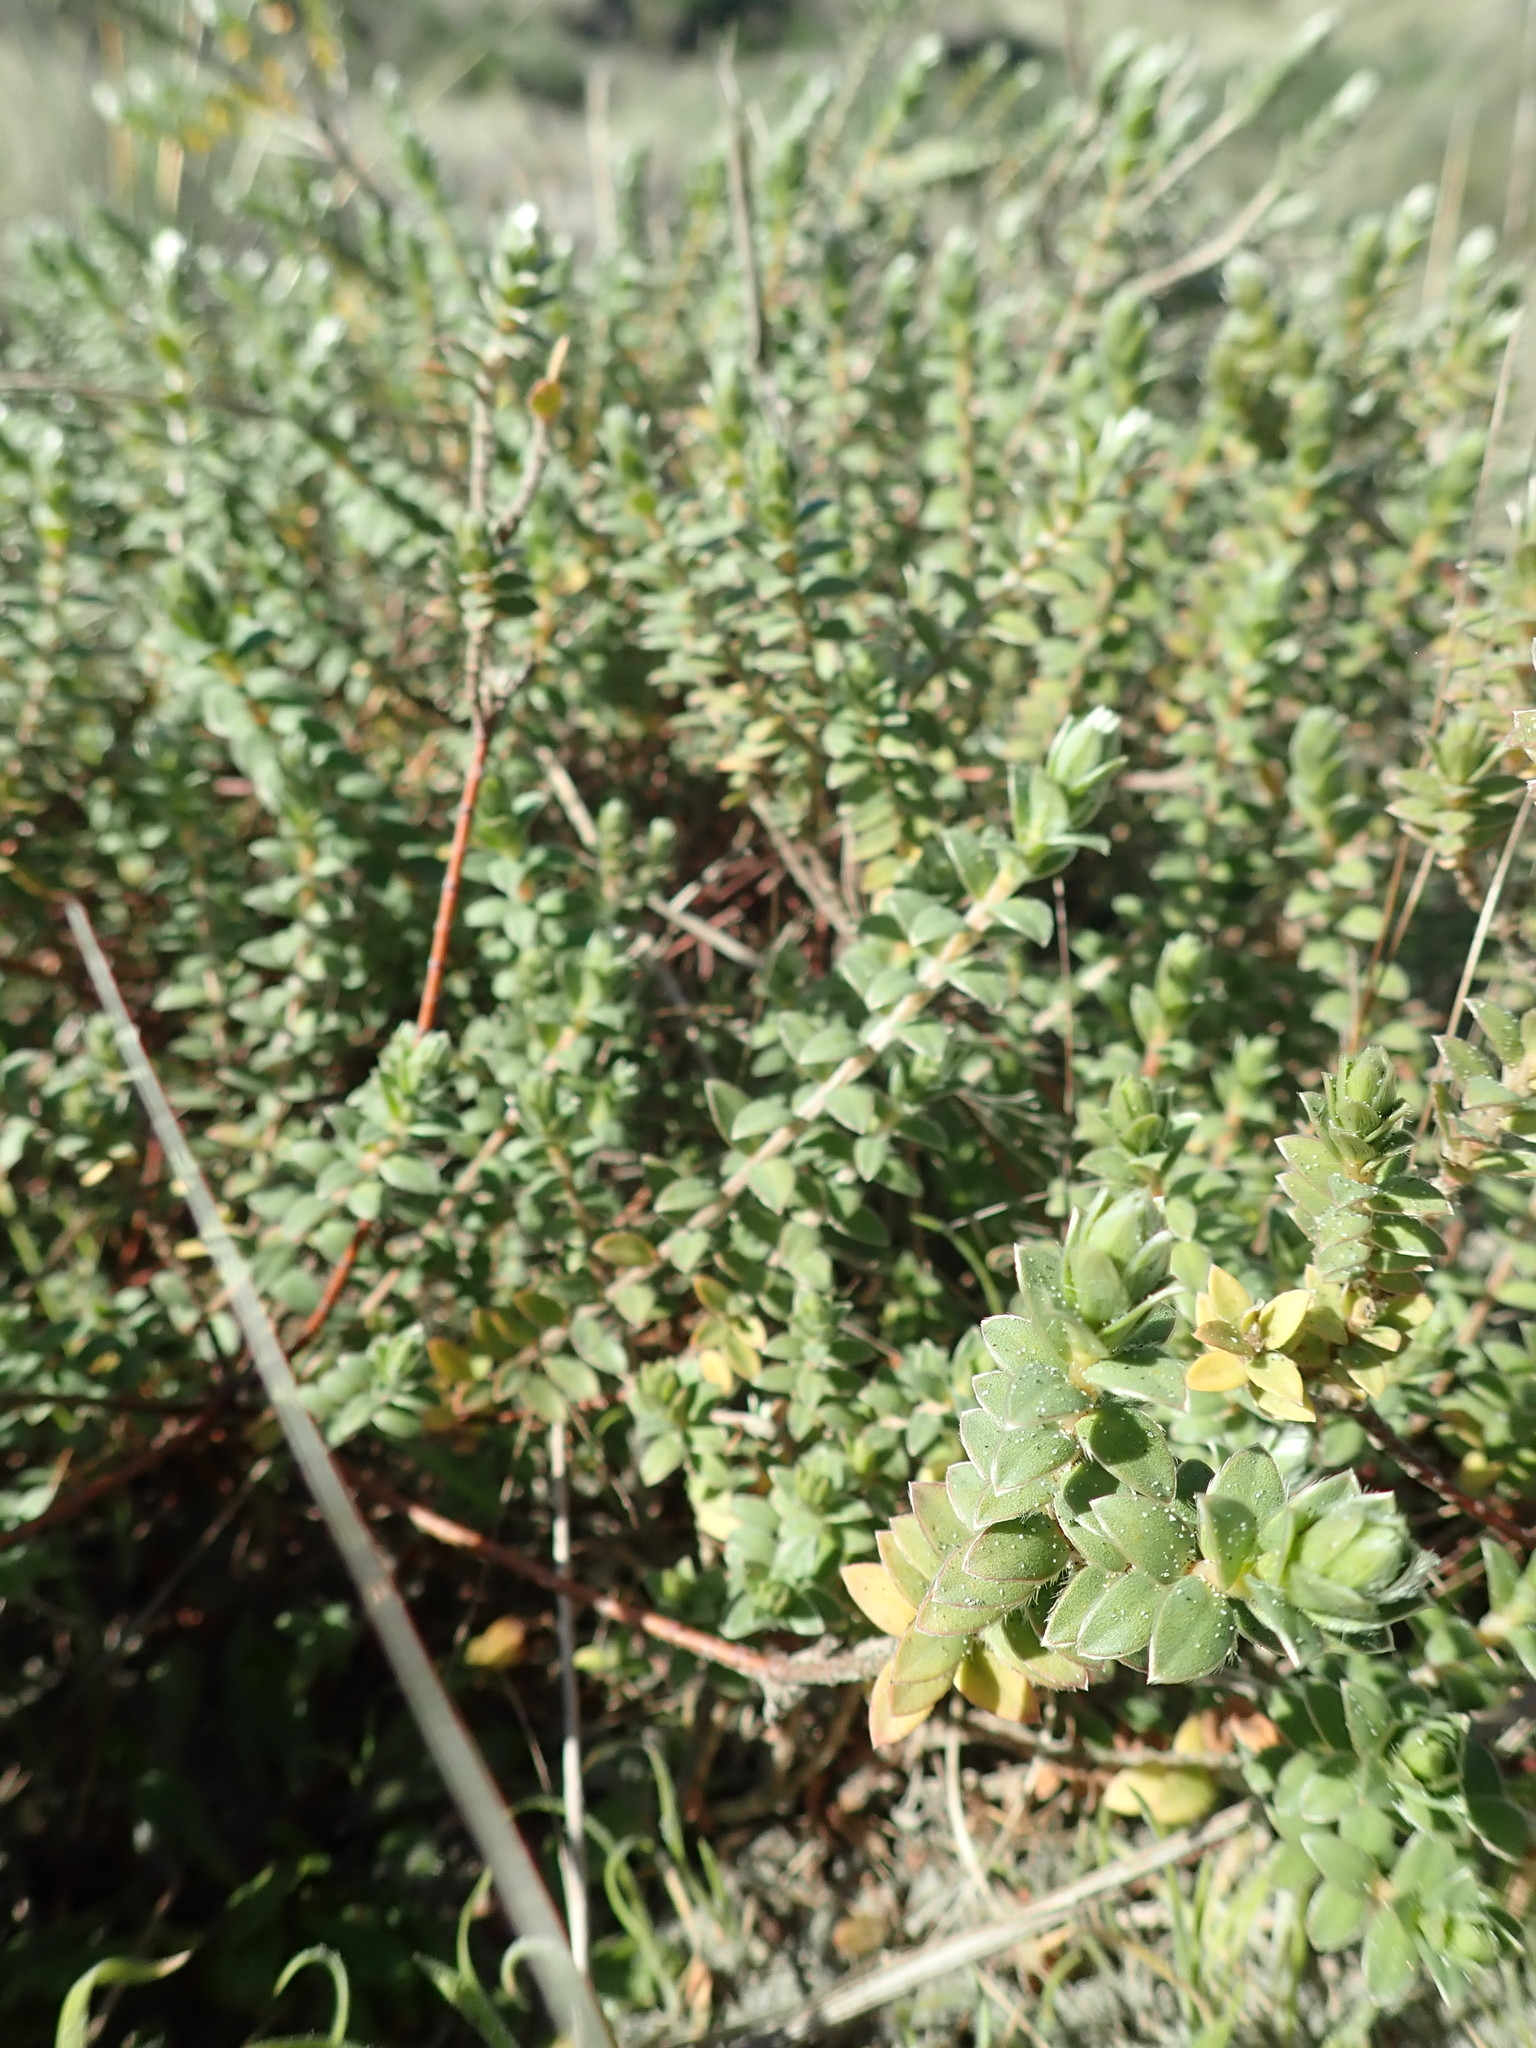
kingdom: Plantae
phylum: Tracheophyta
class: Magnoliopsida
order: Malvales
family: Thymelaeaceae
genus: Pimelea
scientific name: Pimelea villosa
